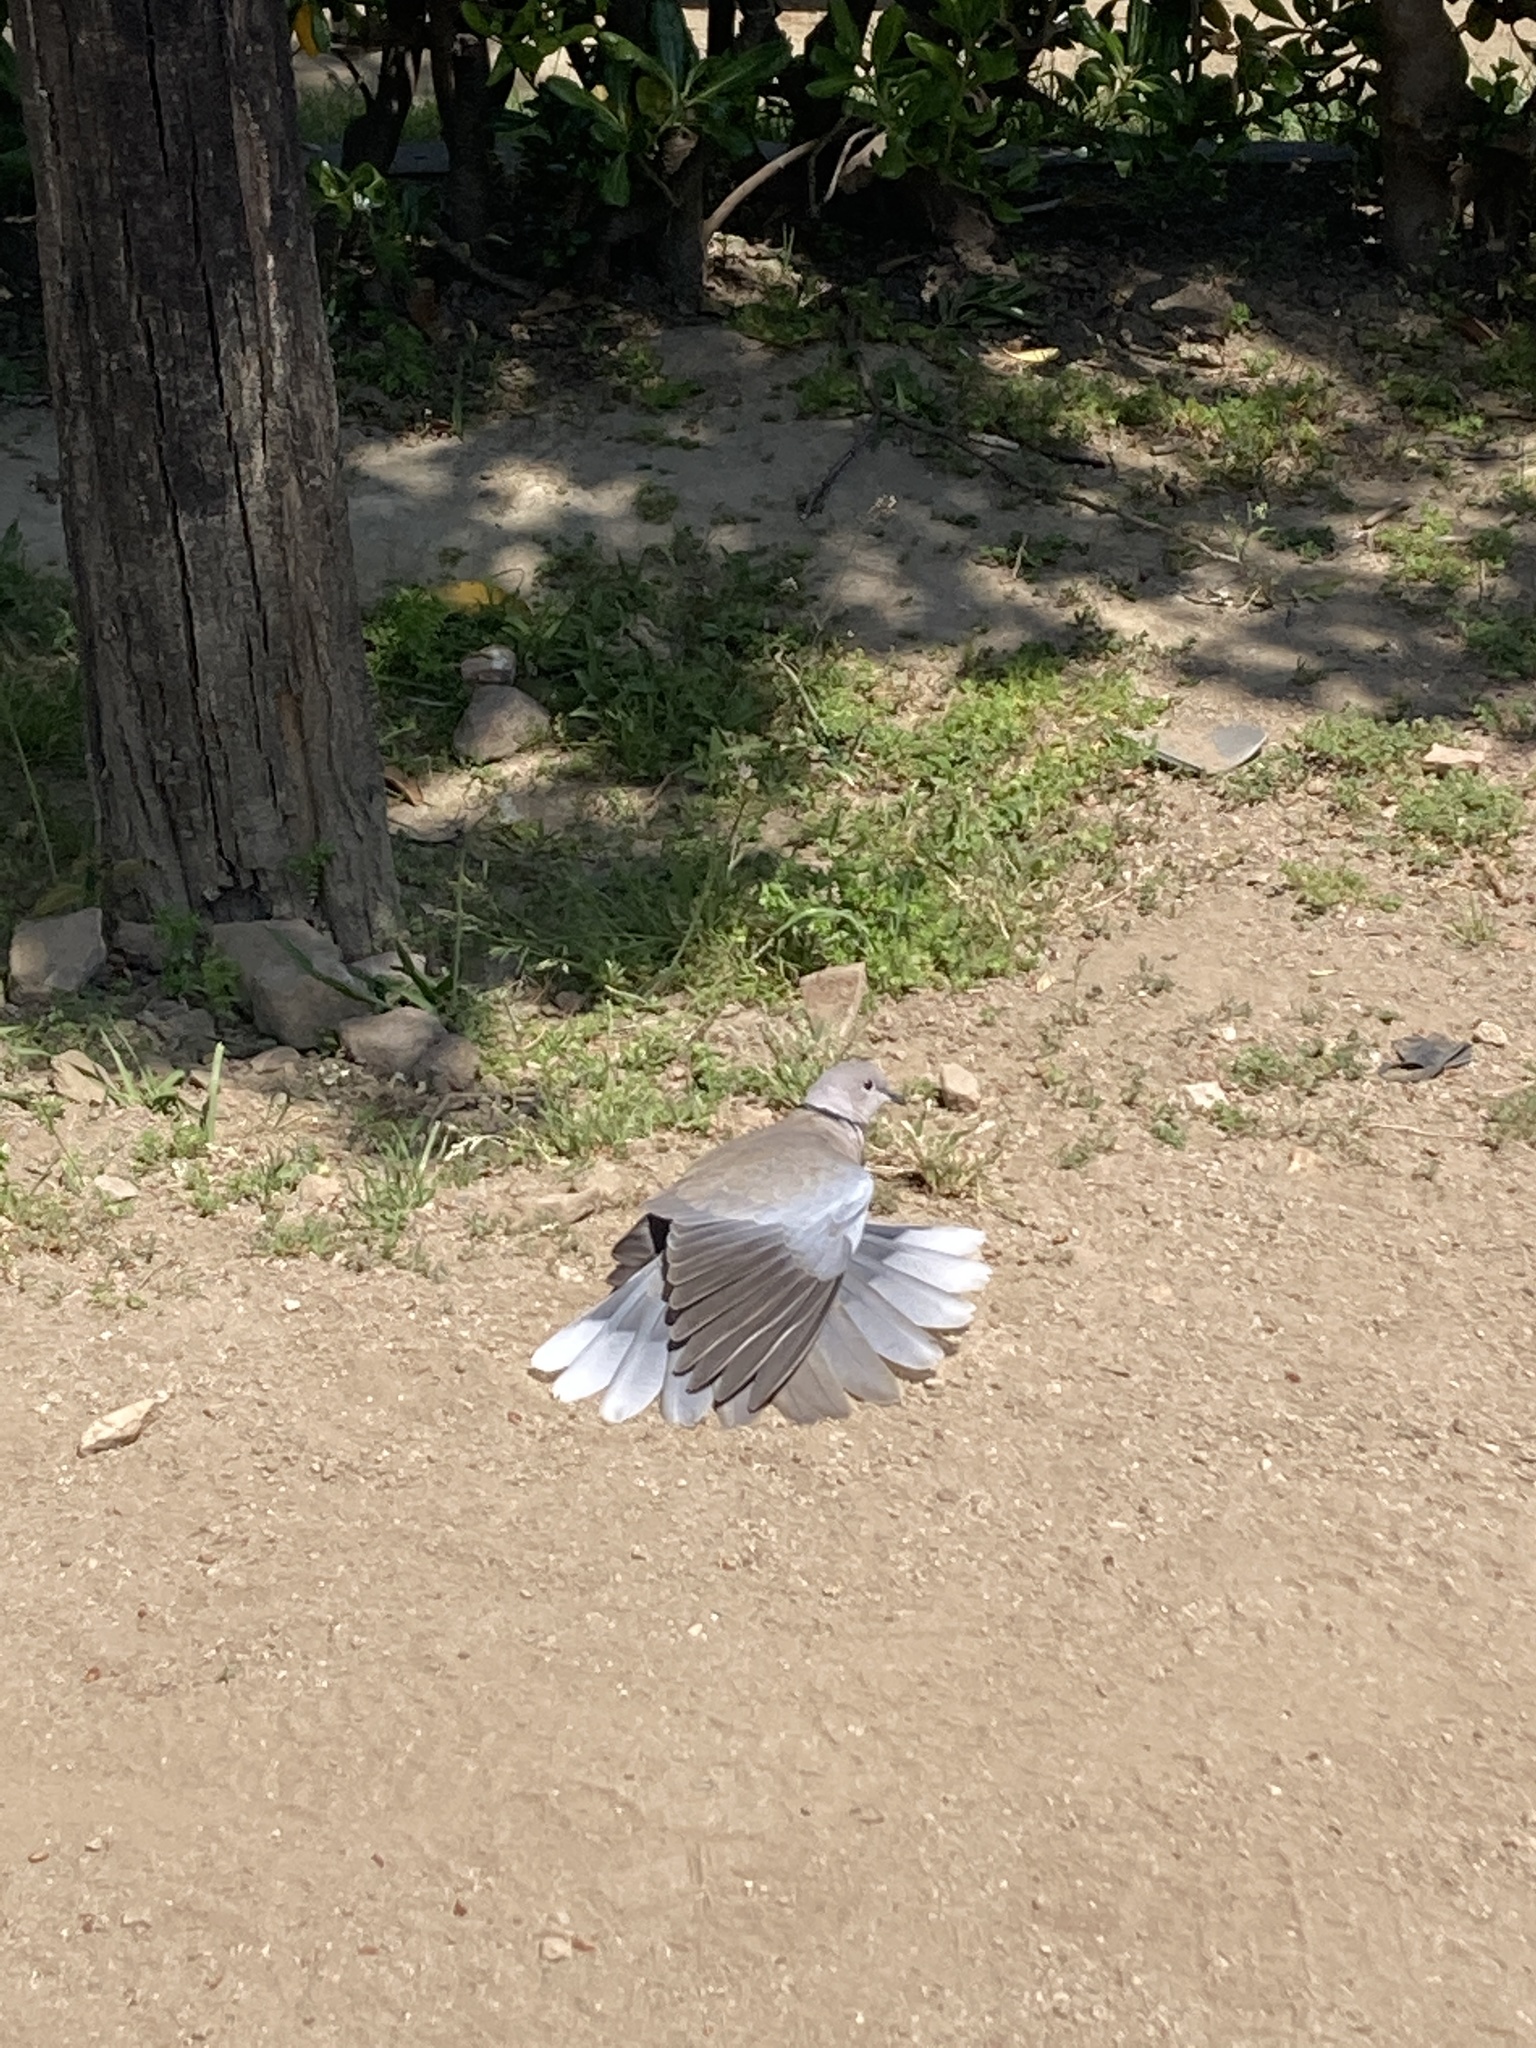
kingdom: Animalia
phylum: Chordata
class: Aves
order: Columbiformes
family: Columbidae
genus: Streptopelia
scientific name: Streptopelia decaocto
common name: Eurasian collared dove
